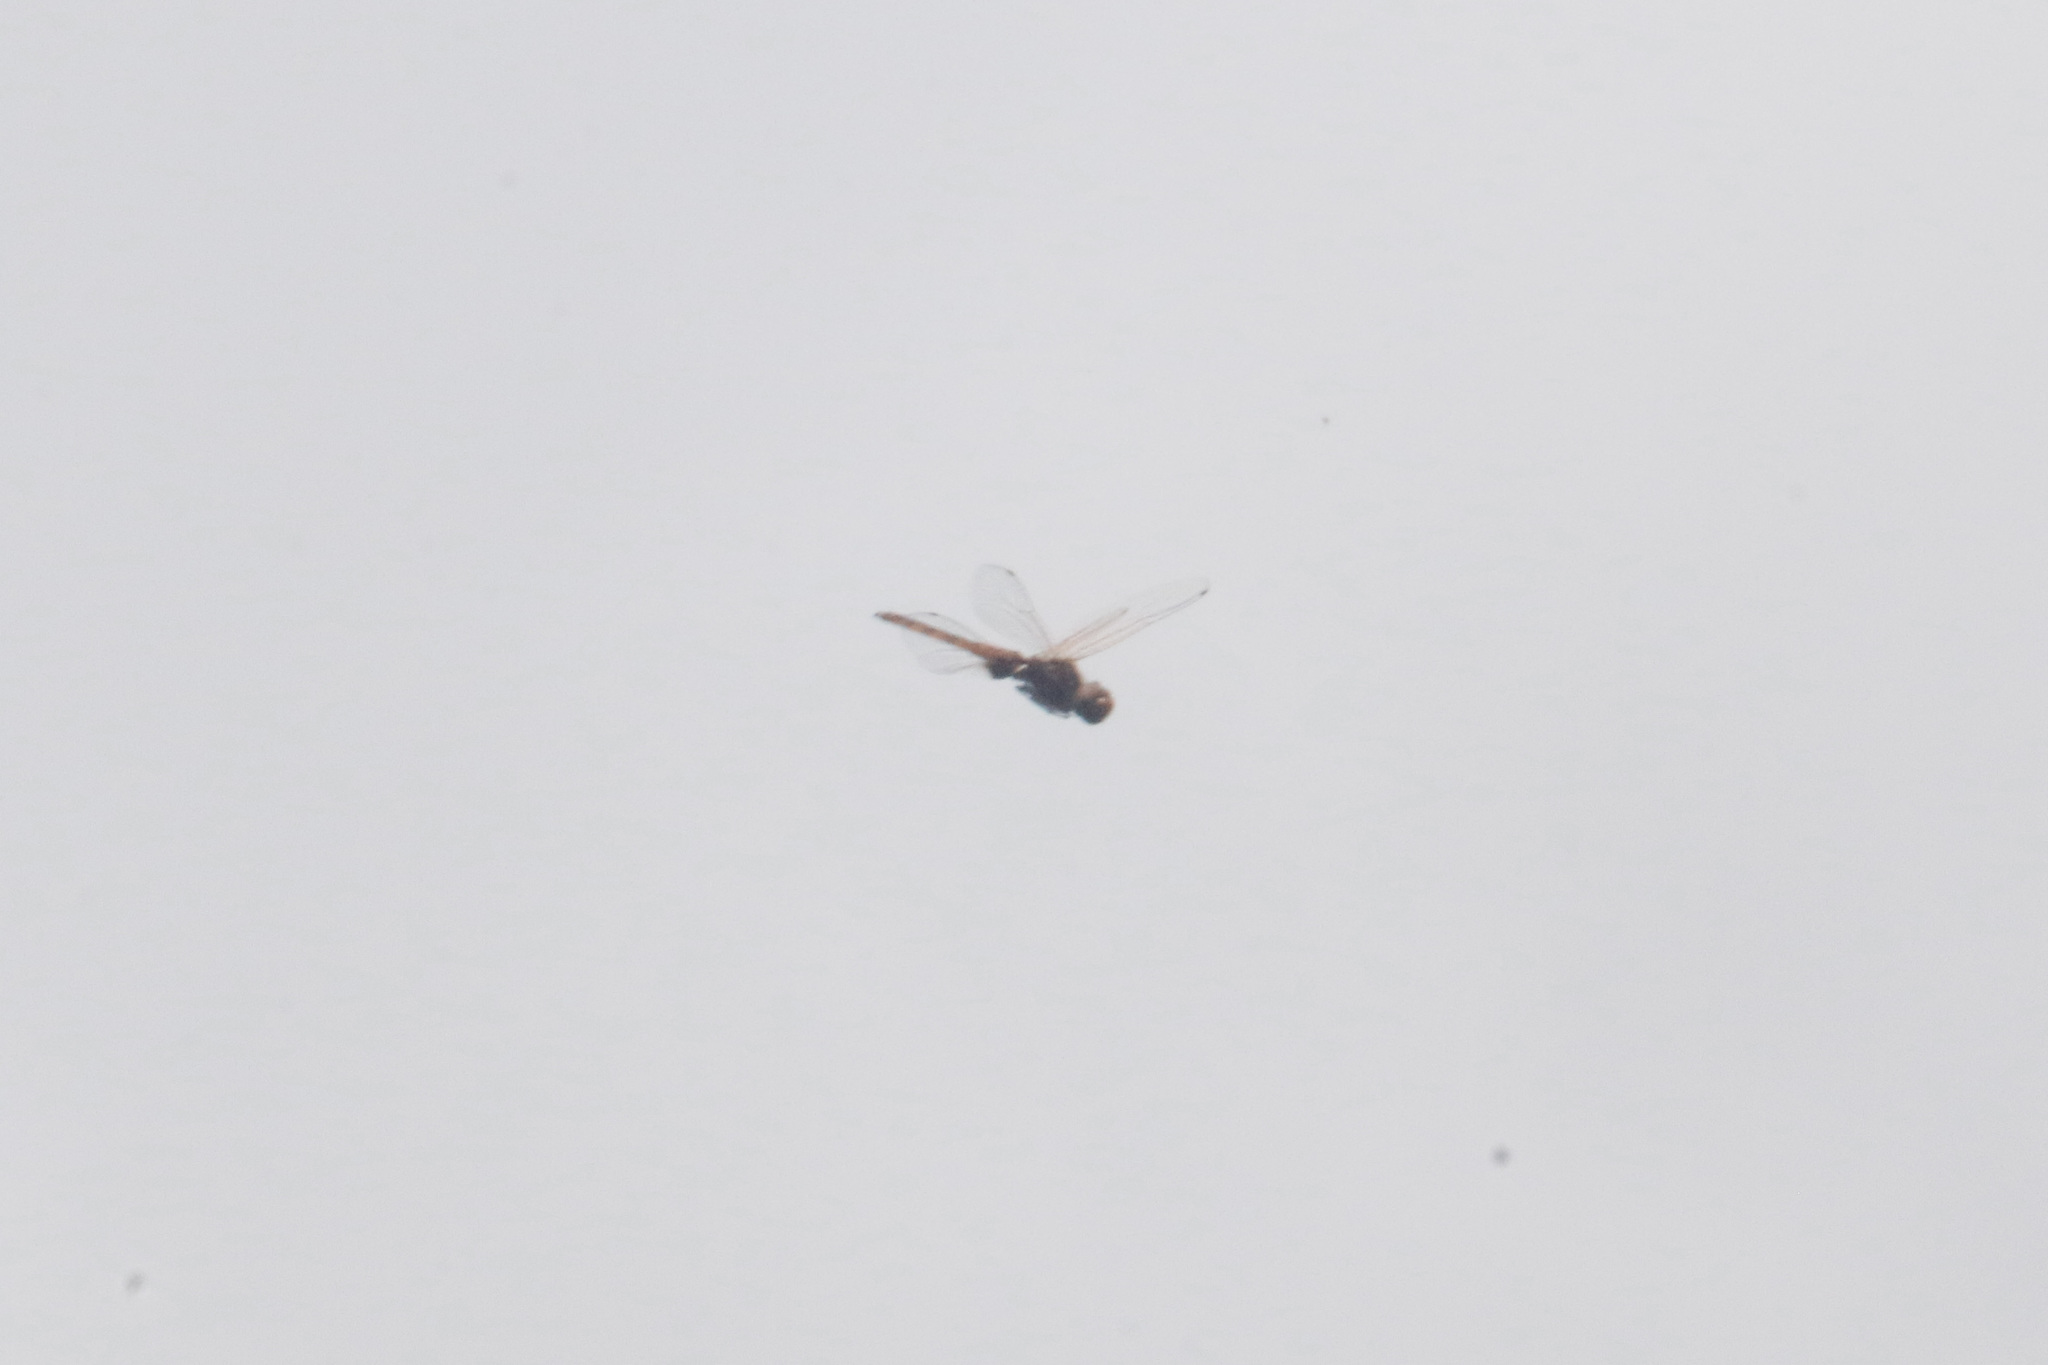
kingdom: Animalia
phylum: Arthropoda
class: Insecta
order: Odonata
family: Libellulidae
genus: Miathyria
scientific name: Miathyria simplex
